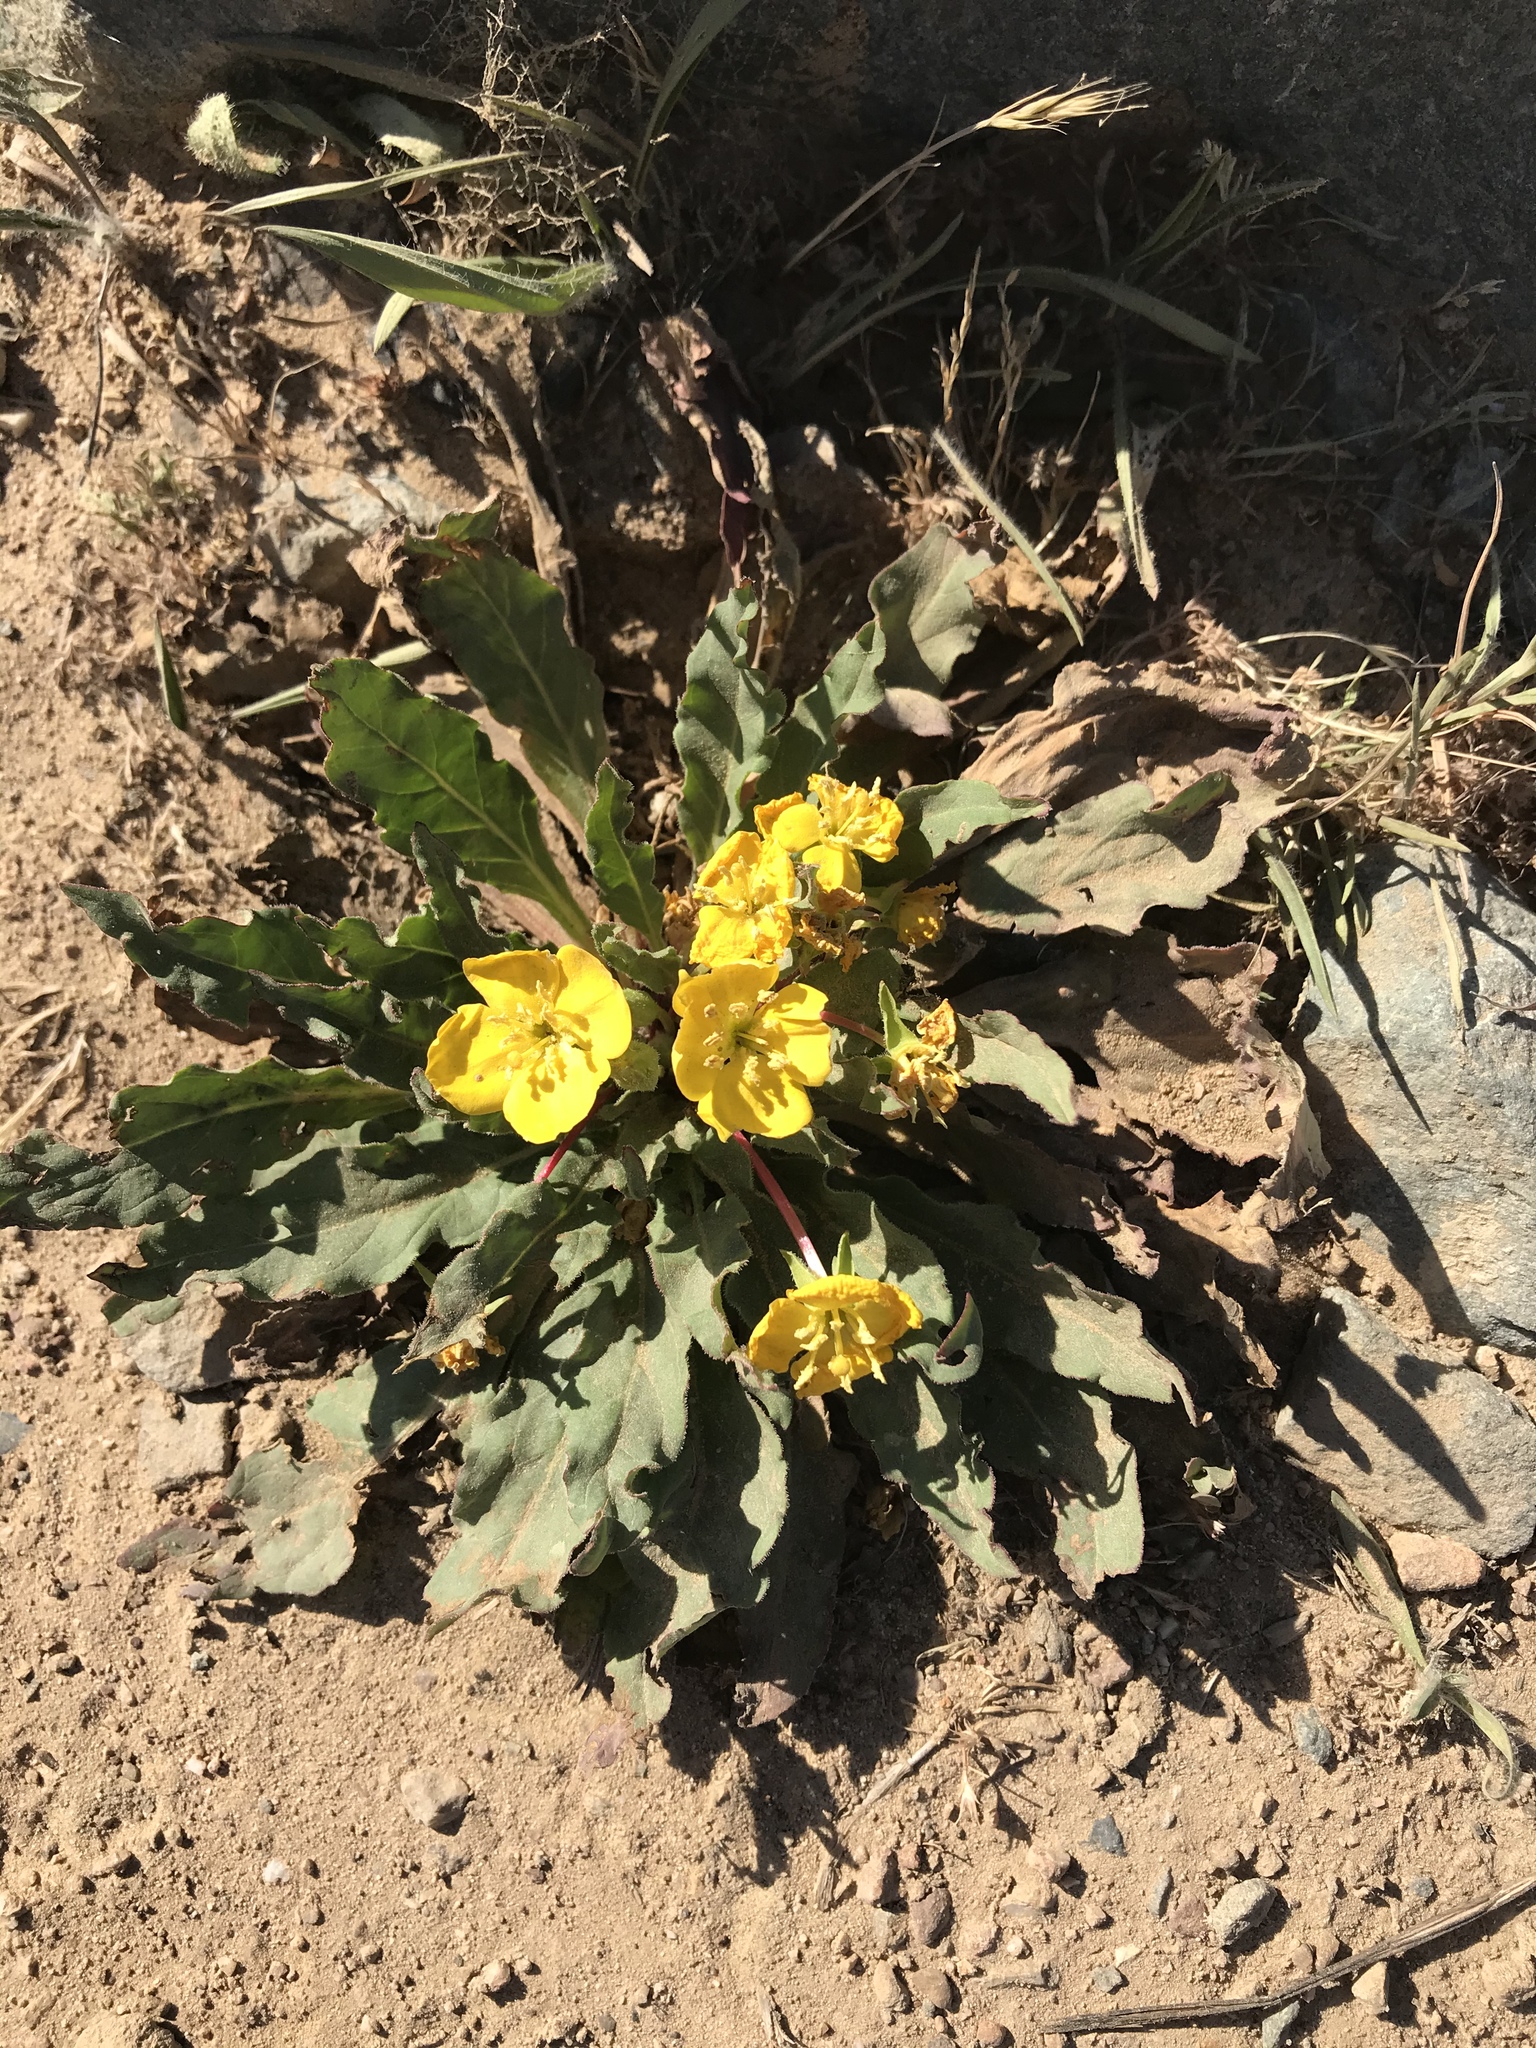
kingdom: Plantae
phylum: Tracheophyta
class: Magnoliopsida
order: Myrtales
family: Onagraceae
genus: Taraxia
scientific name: Taraxia ovata
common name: Goldeneggs
